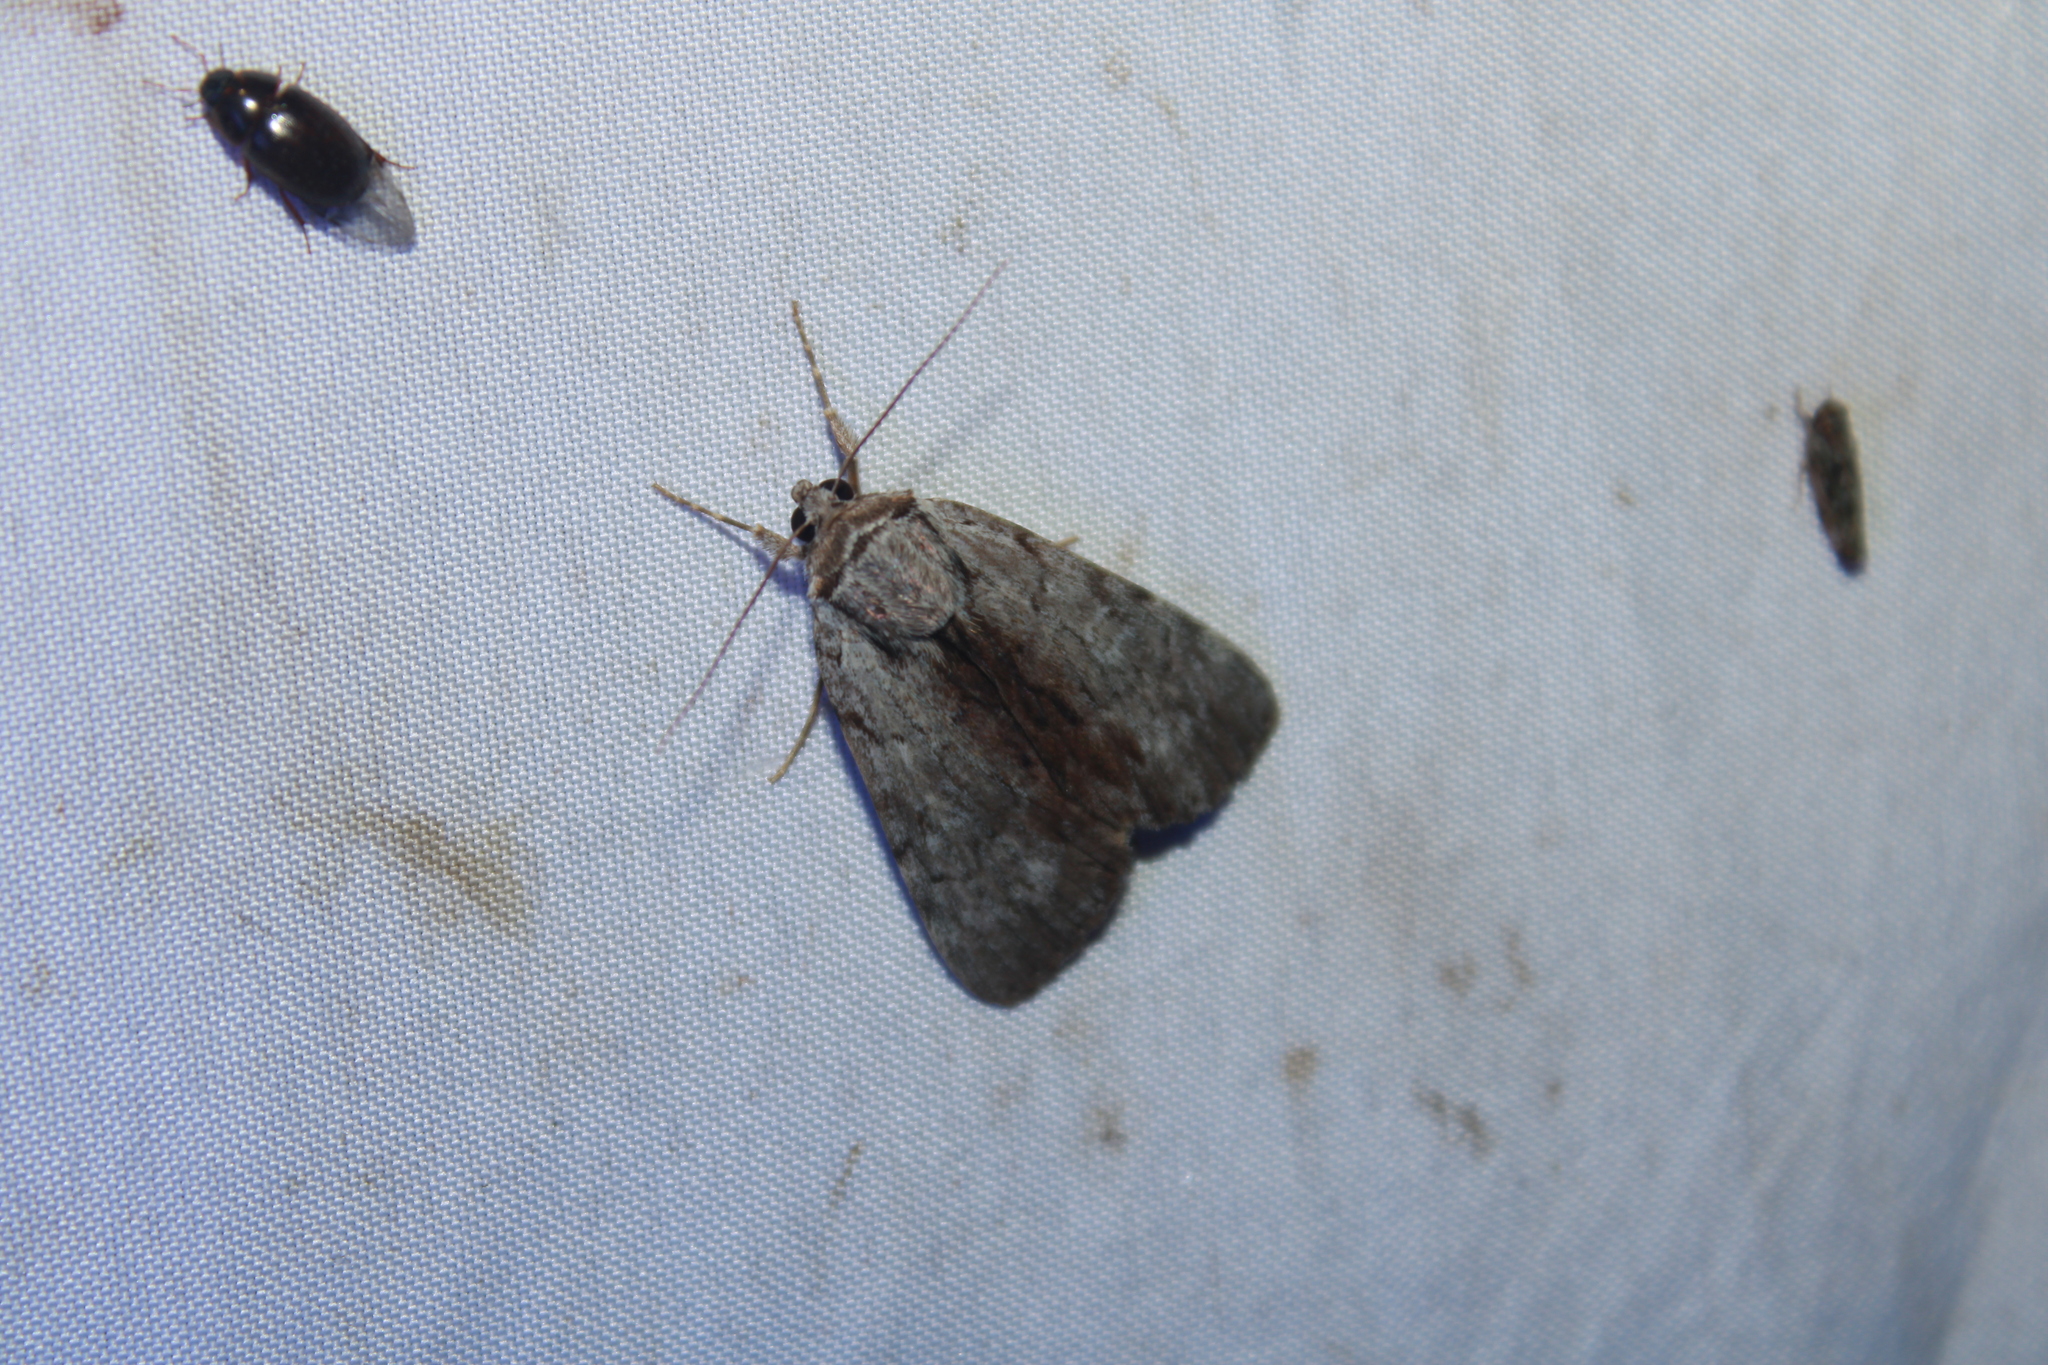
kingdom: Animalia
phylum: Arthropoda
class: Insecta
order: Lepidoptera
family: Erebidae
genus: Catocala
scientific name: Catocala gracilis
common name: Graceful underwing
